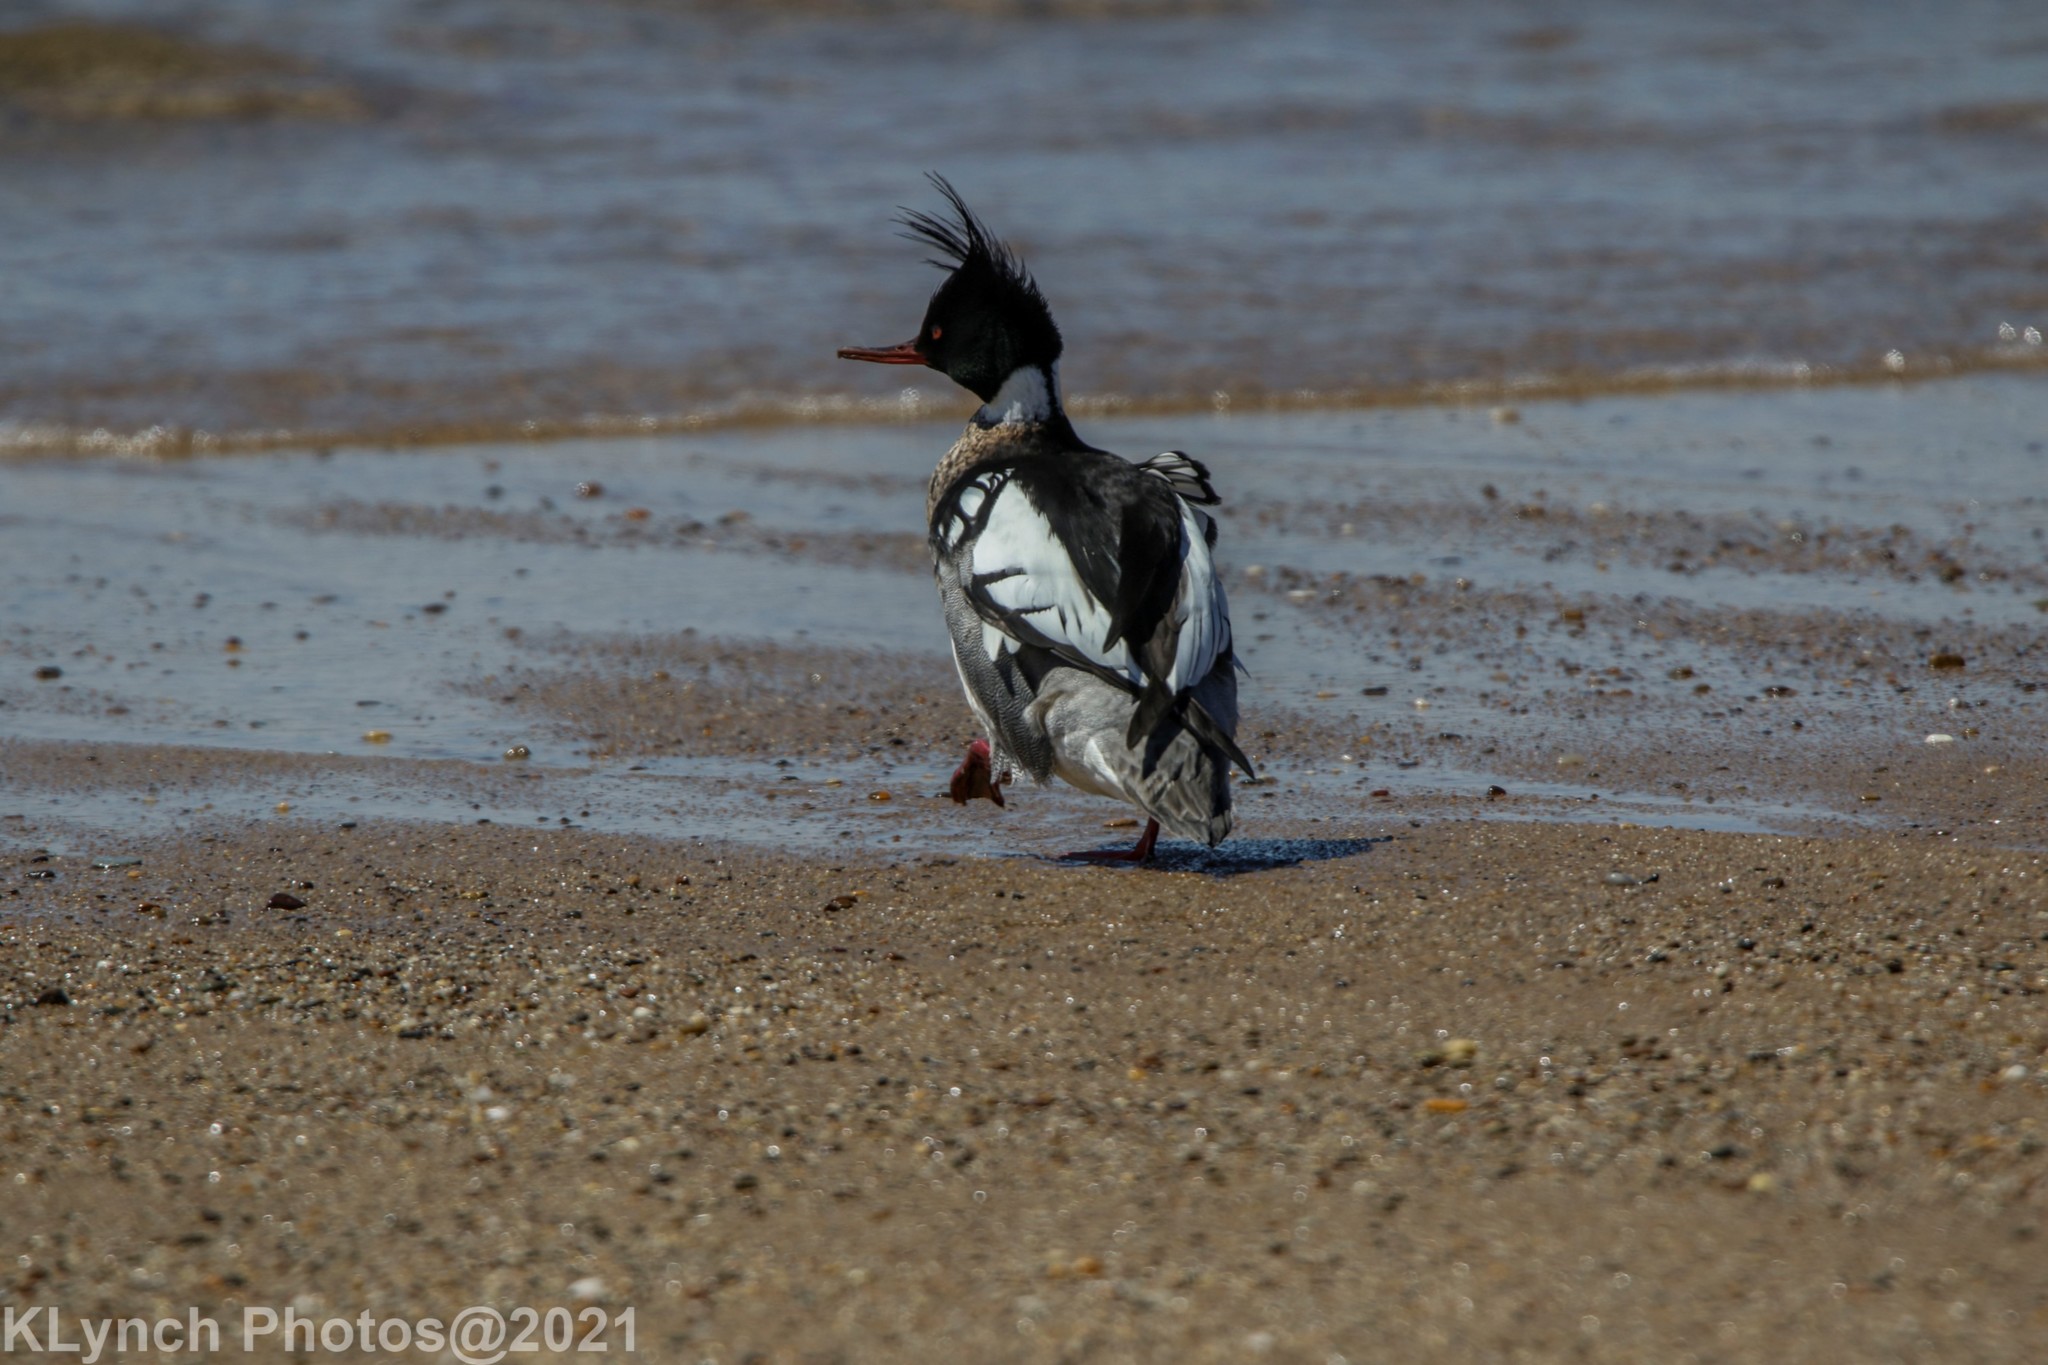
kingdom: Animalia
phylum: Chordata
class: Aves
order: Anseriformes
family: Anatidae
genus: Mergus
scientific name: Mergus serrator
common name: Red-breasted merganser
